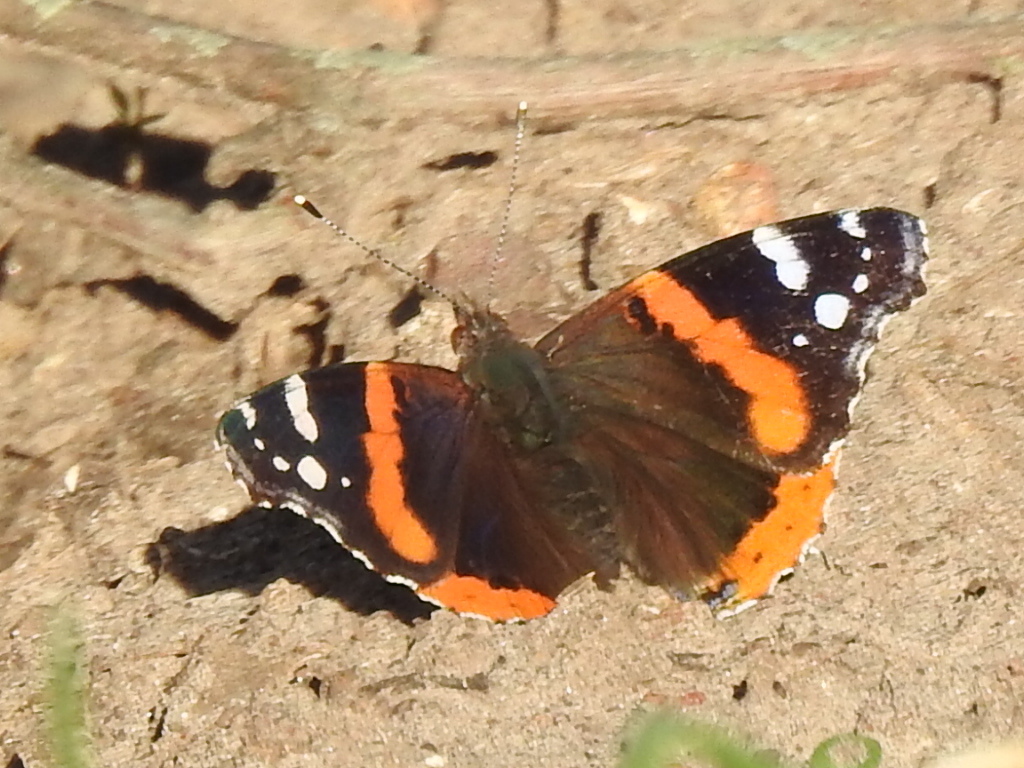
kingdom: Animalia
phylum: Arthropoda
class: Insecta
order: Lepidoptera
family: Nymphalidae
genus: Vanessa
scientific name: Vanessa atalanta
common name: Red admiral
